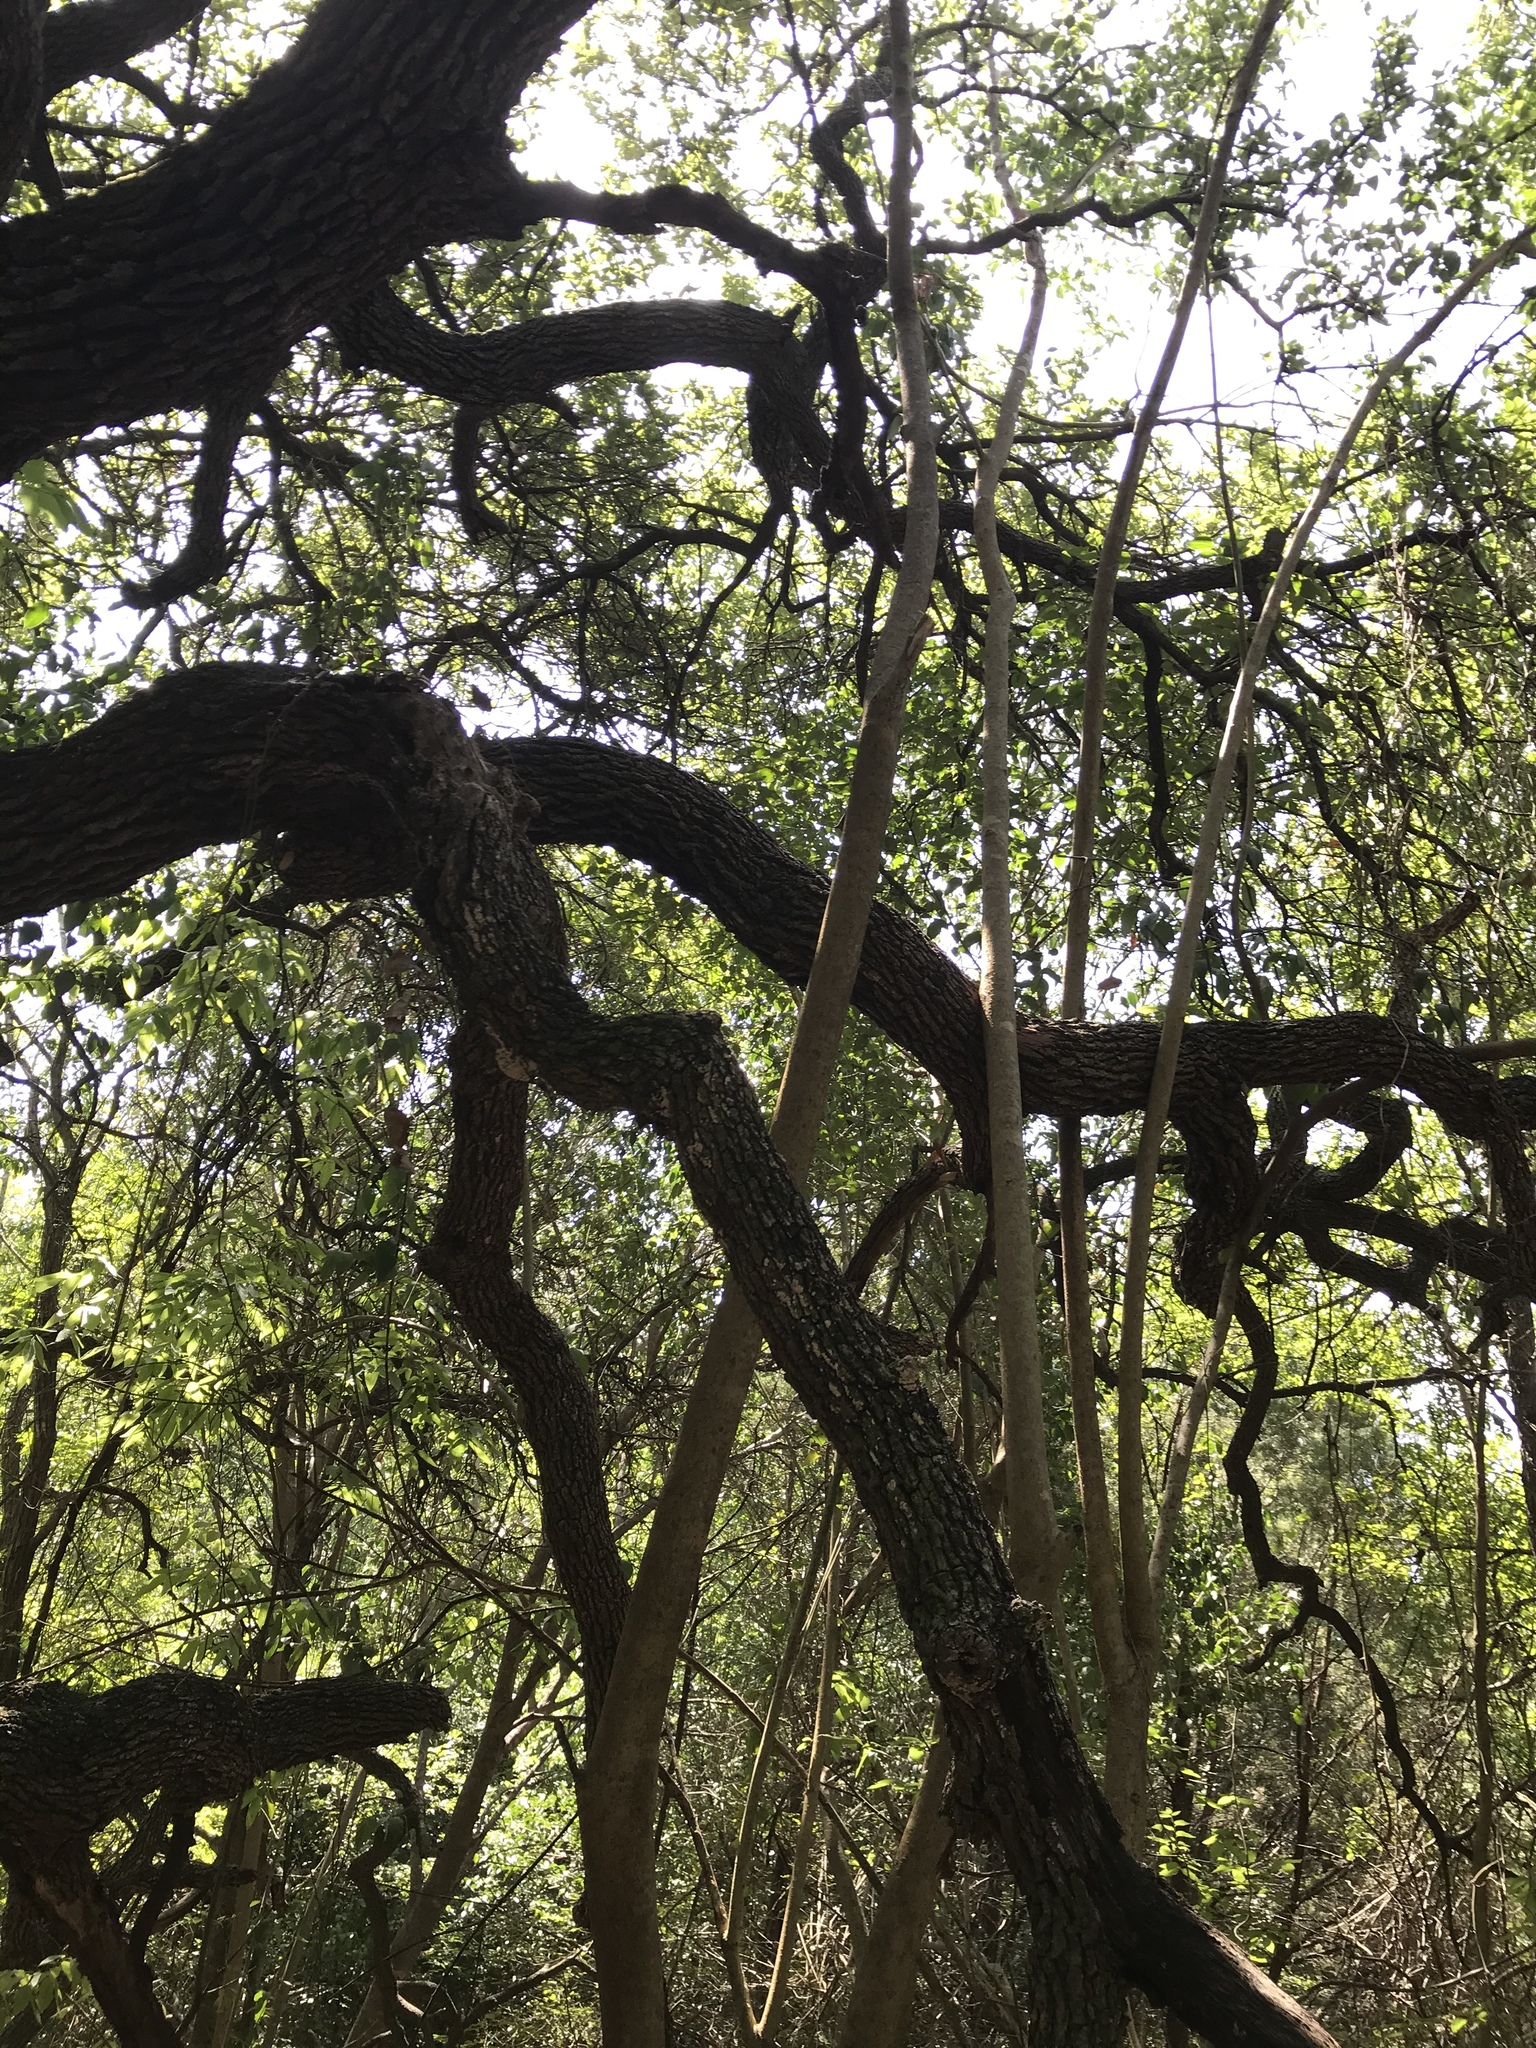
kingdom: Plantae
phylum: Tracheophyta
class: Magnoliopsida
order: Lamiales
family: Oleaceae
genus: Ligustrum
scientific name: Ligustrum lucidum
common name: Glossy privet
